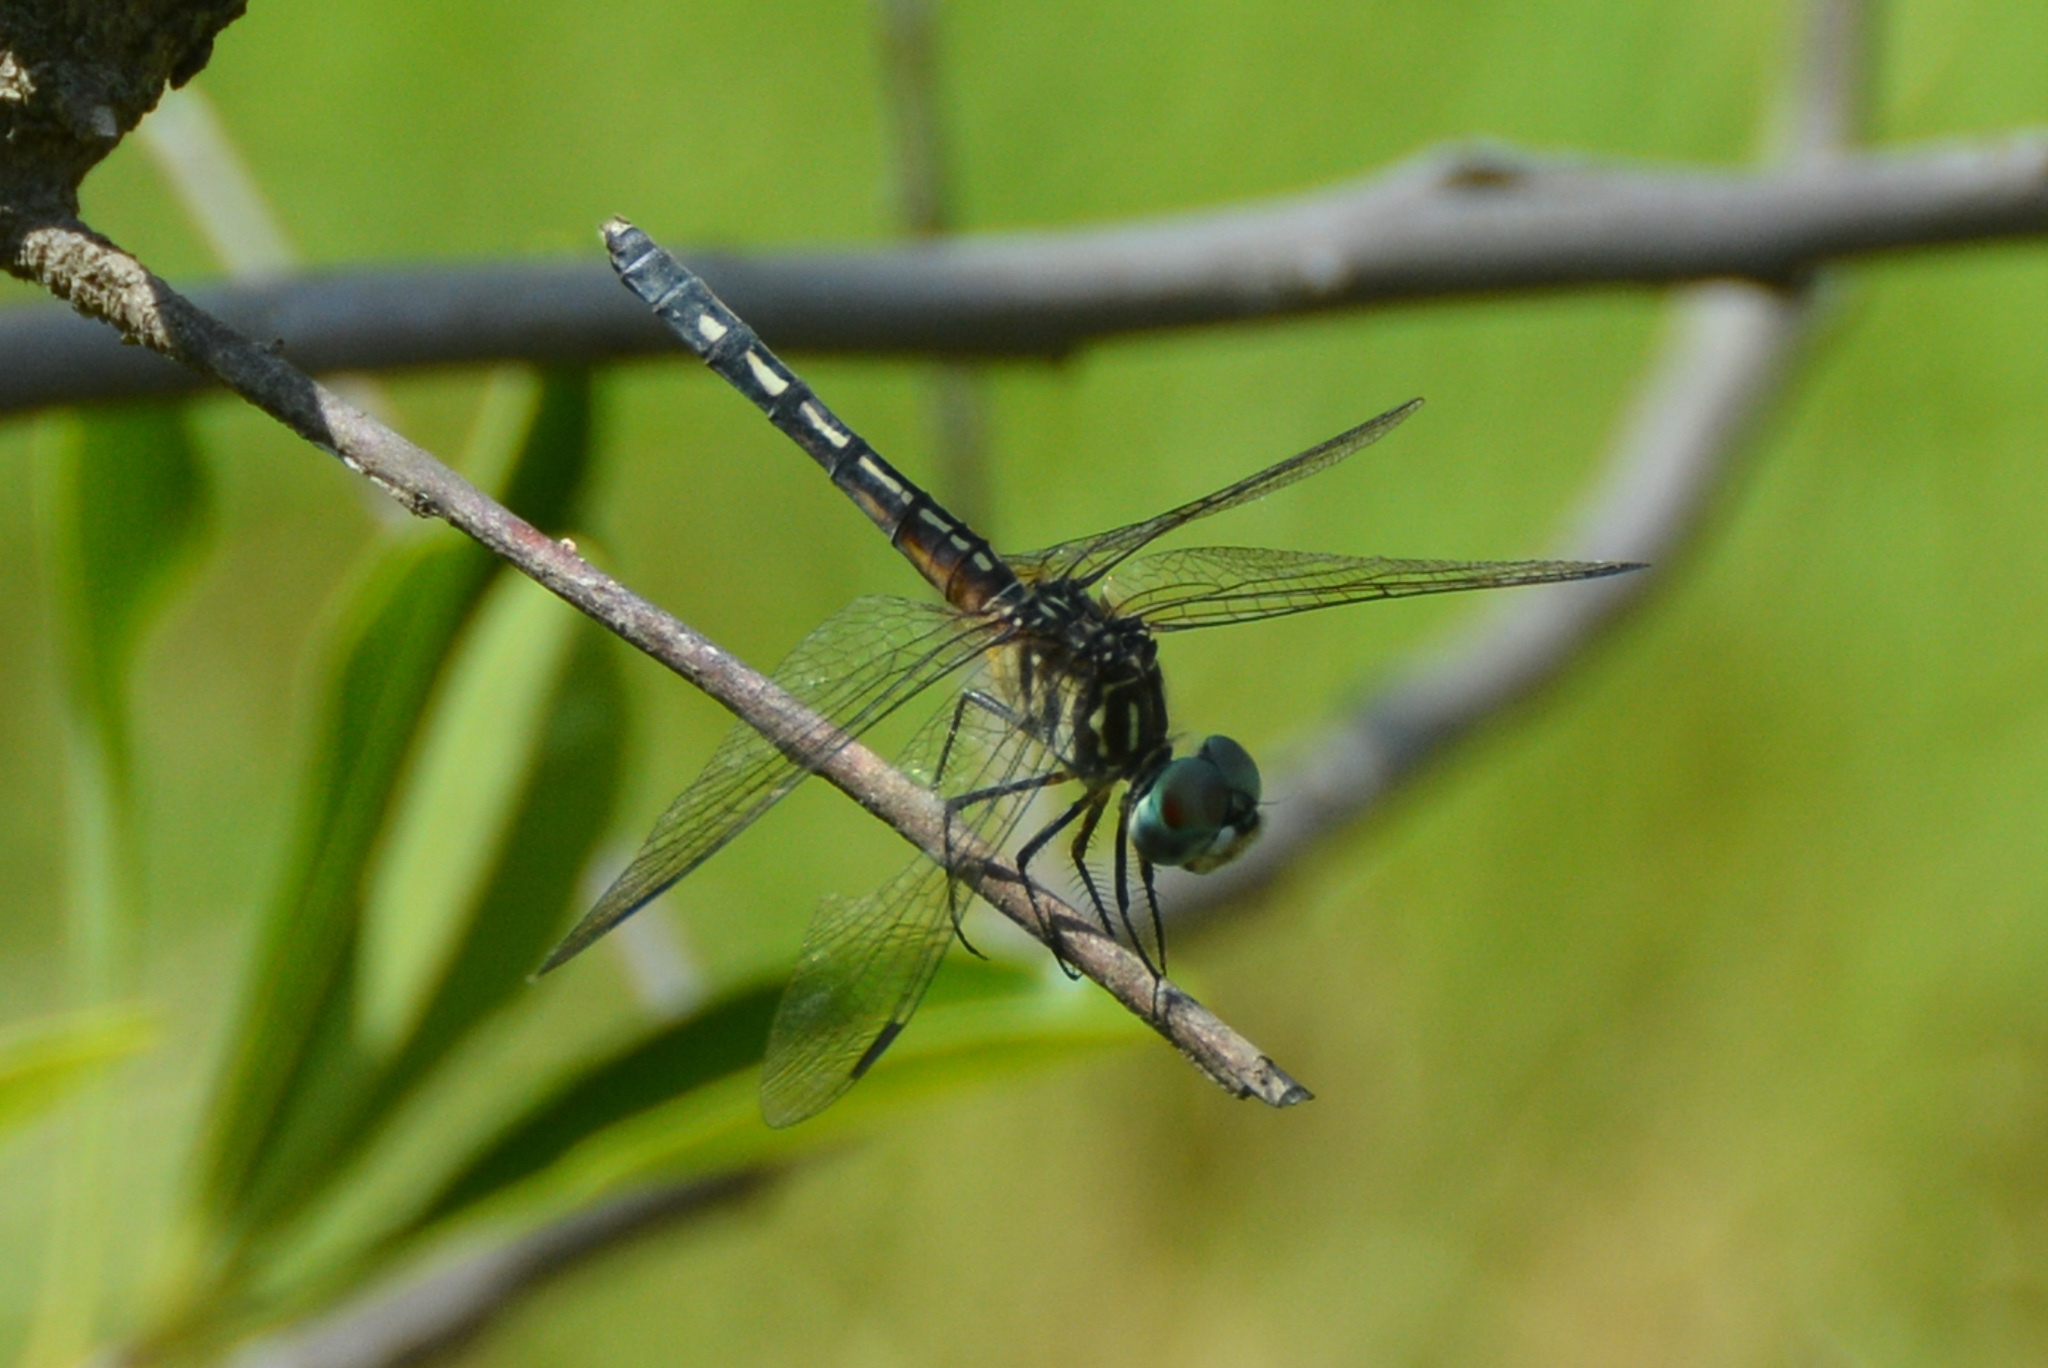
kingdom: Animalia
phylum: Arthropoda
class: Insecta
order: Odonata
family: Libellulidae
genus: Pachydiplax
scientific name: Pachydiplax longipennis
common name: Blue dasher
